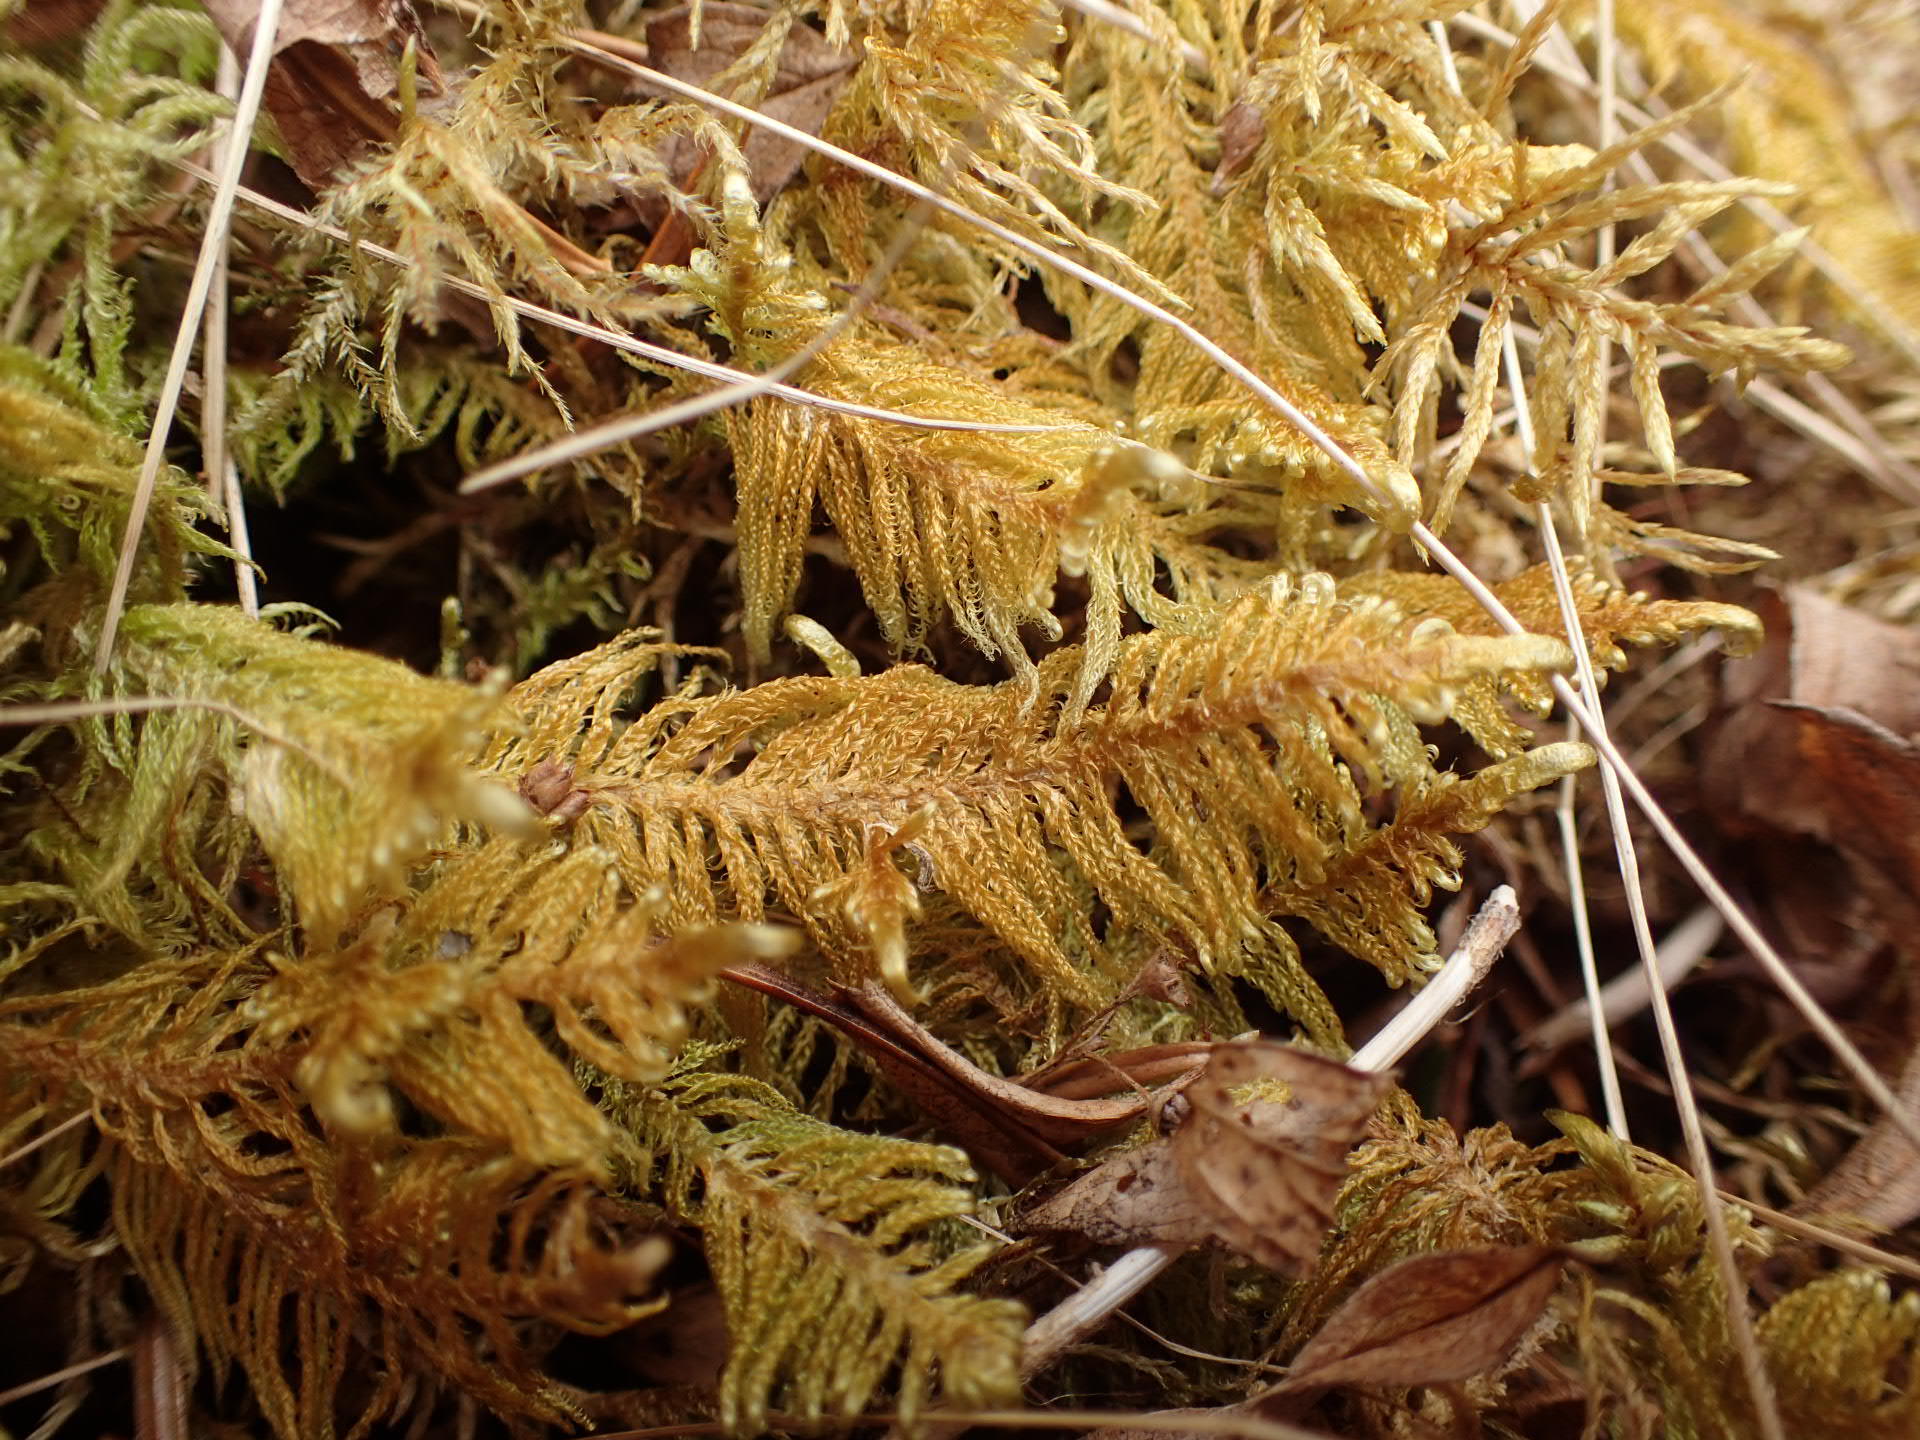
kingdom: Plantae
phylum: Bryophyta
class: Bryopsida
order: Hypnales
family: Pylaisiaceae
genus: Ptilium
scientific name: Ptilium crista-castrensis
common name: Knight's plume moss
